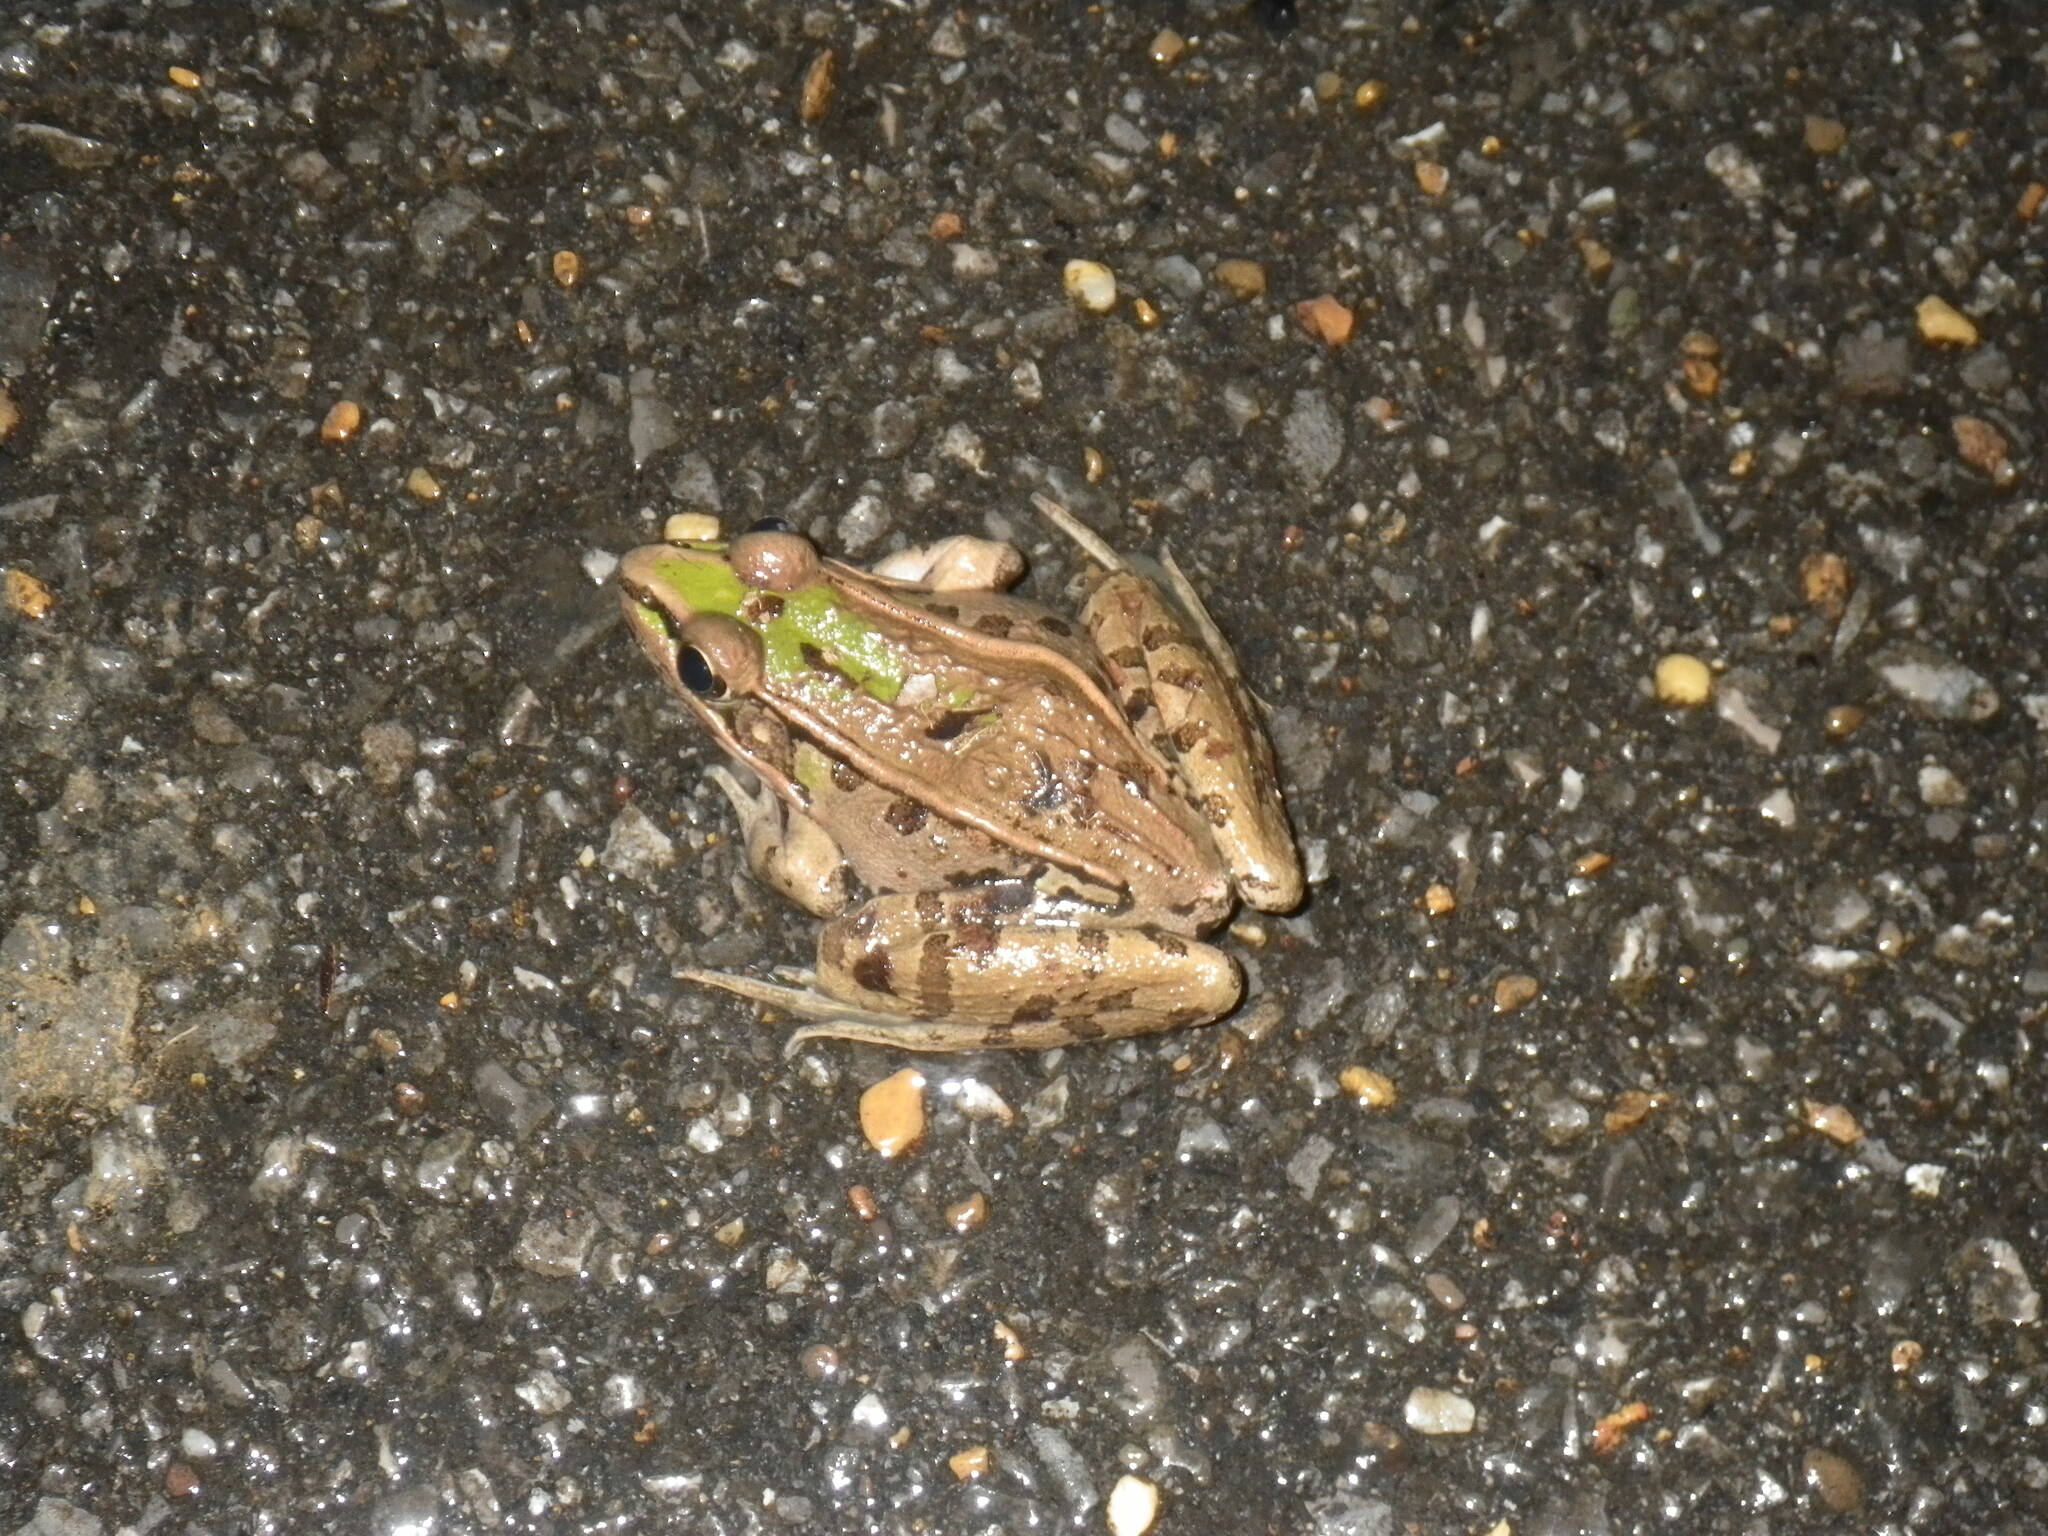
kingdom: Animalia
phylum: Chordata
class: Amphibia
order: Anura
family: Ranidae
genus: Lithobates
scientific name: Lithobates sphenocephalus
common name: Southern leopard frog
